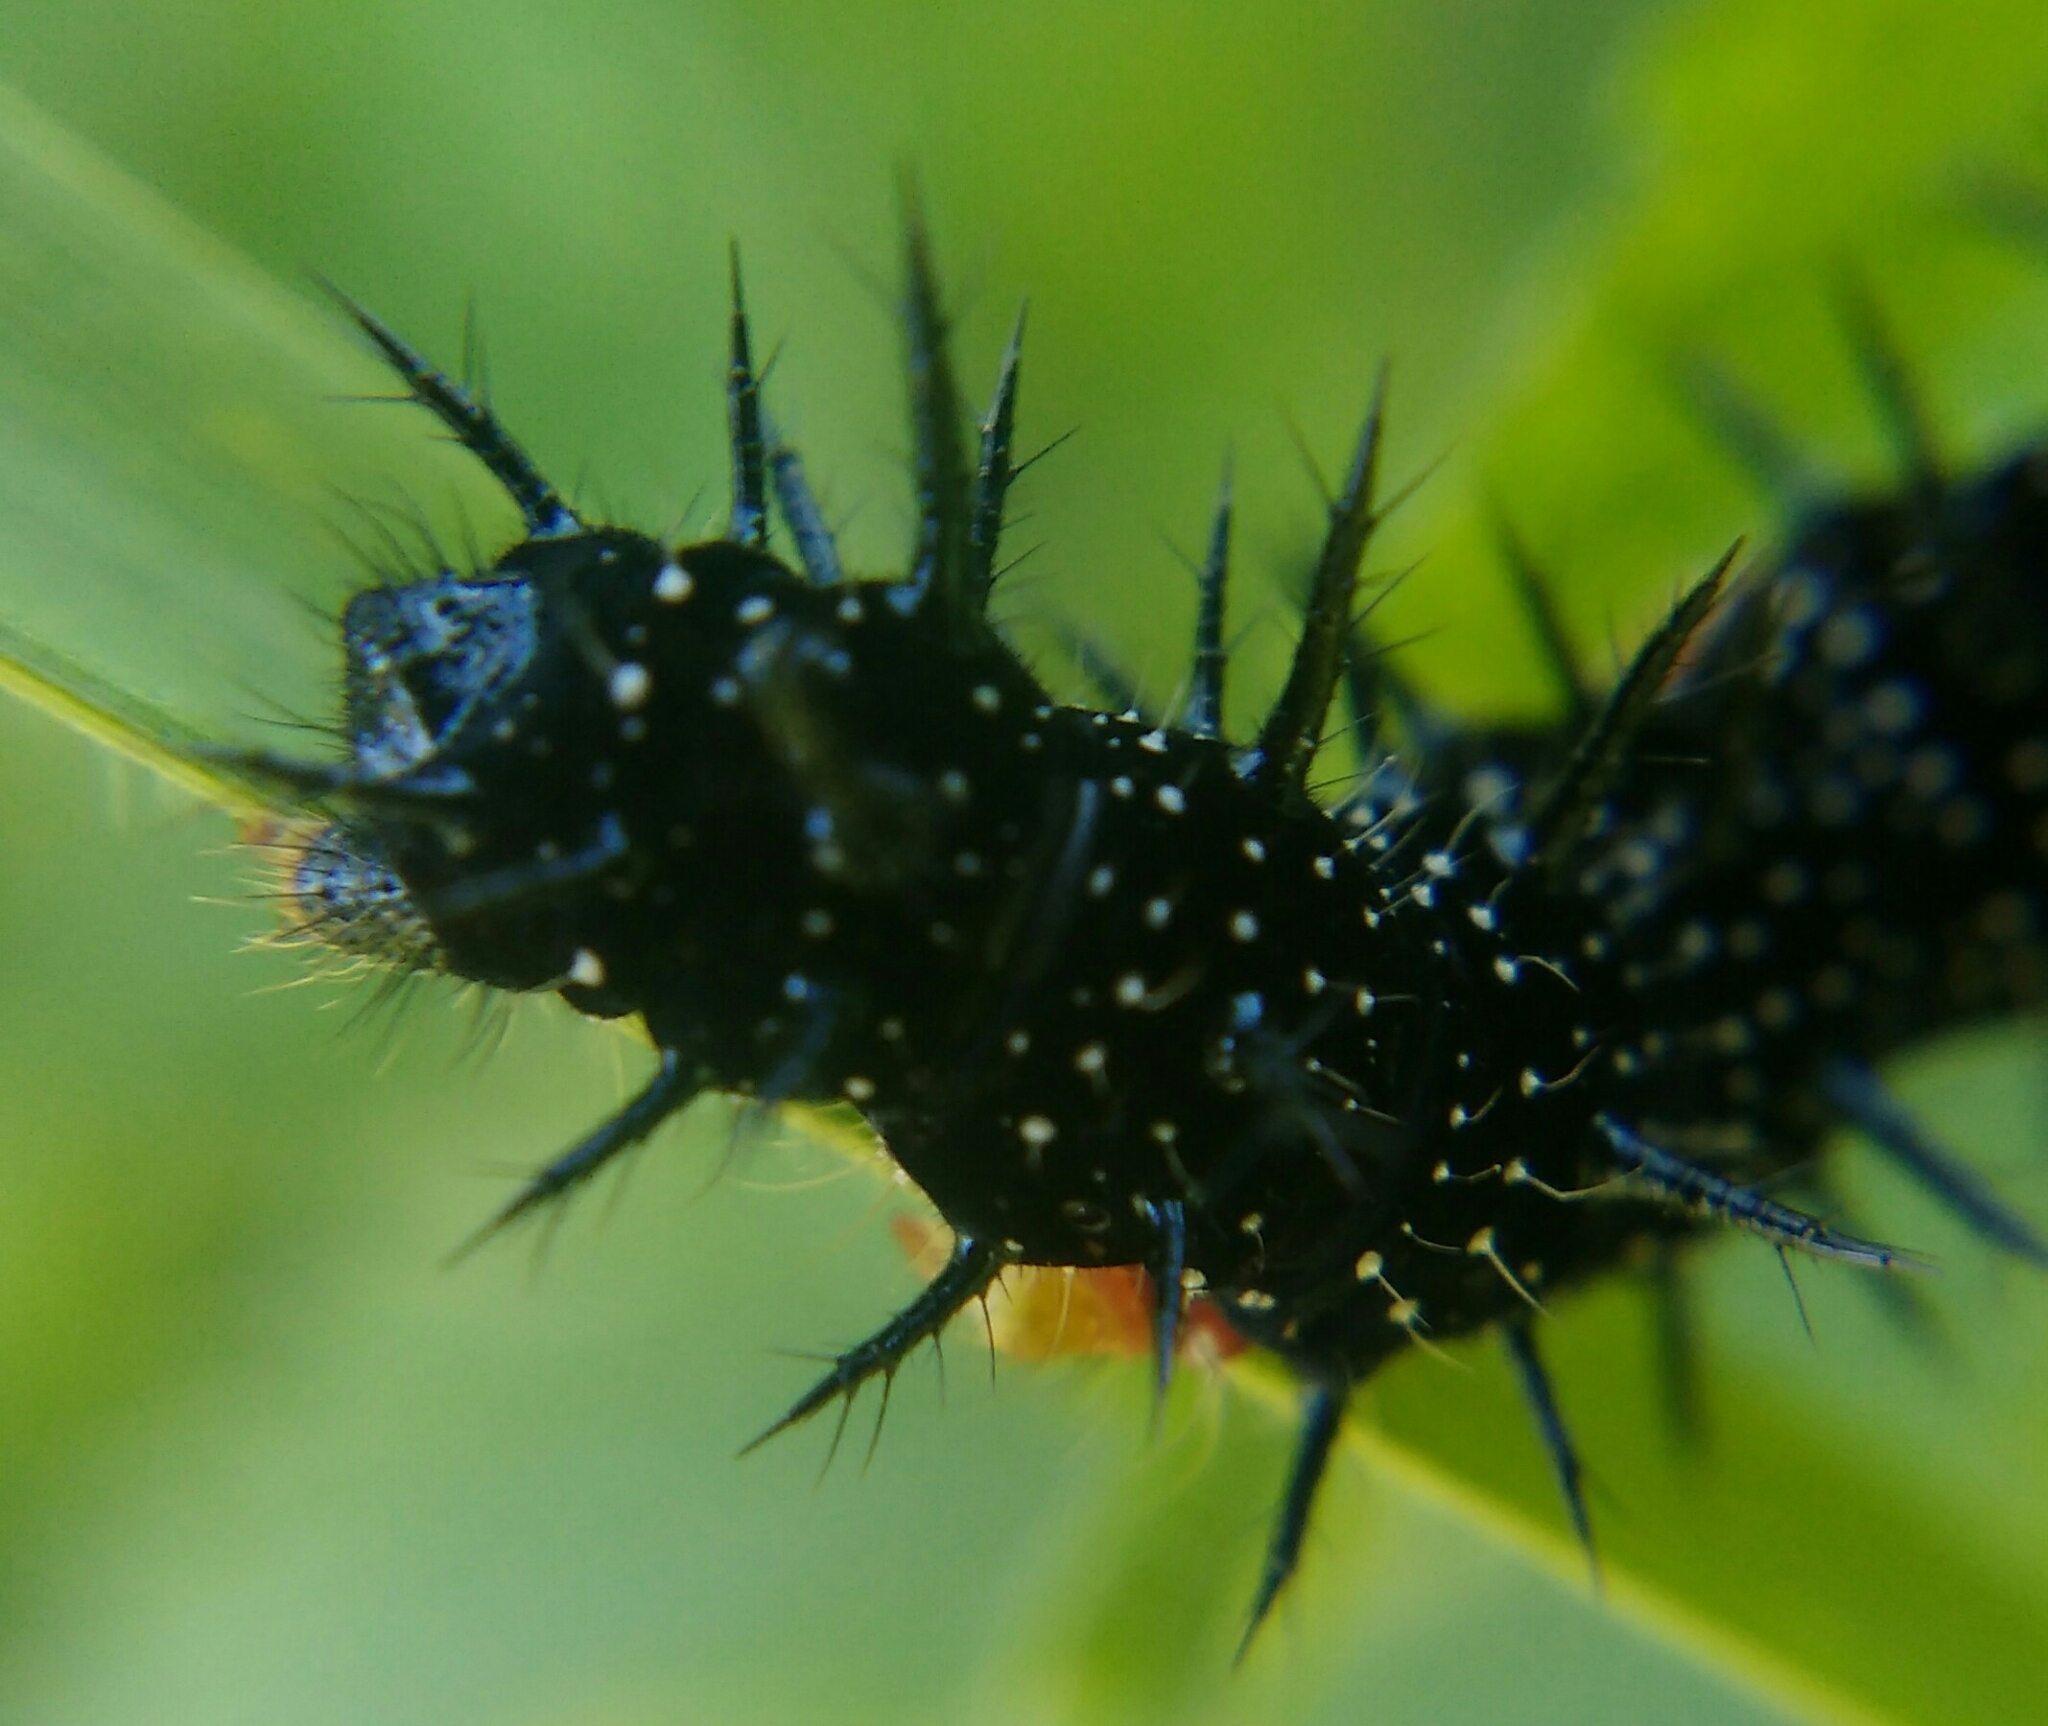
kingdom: Animalia
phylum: Arthropoda
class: Insecta
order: Lepidoptera
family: Nymphalidae
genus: Aglais
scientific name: Aglais io
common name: Peacock
